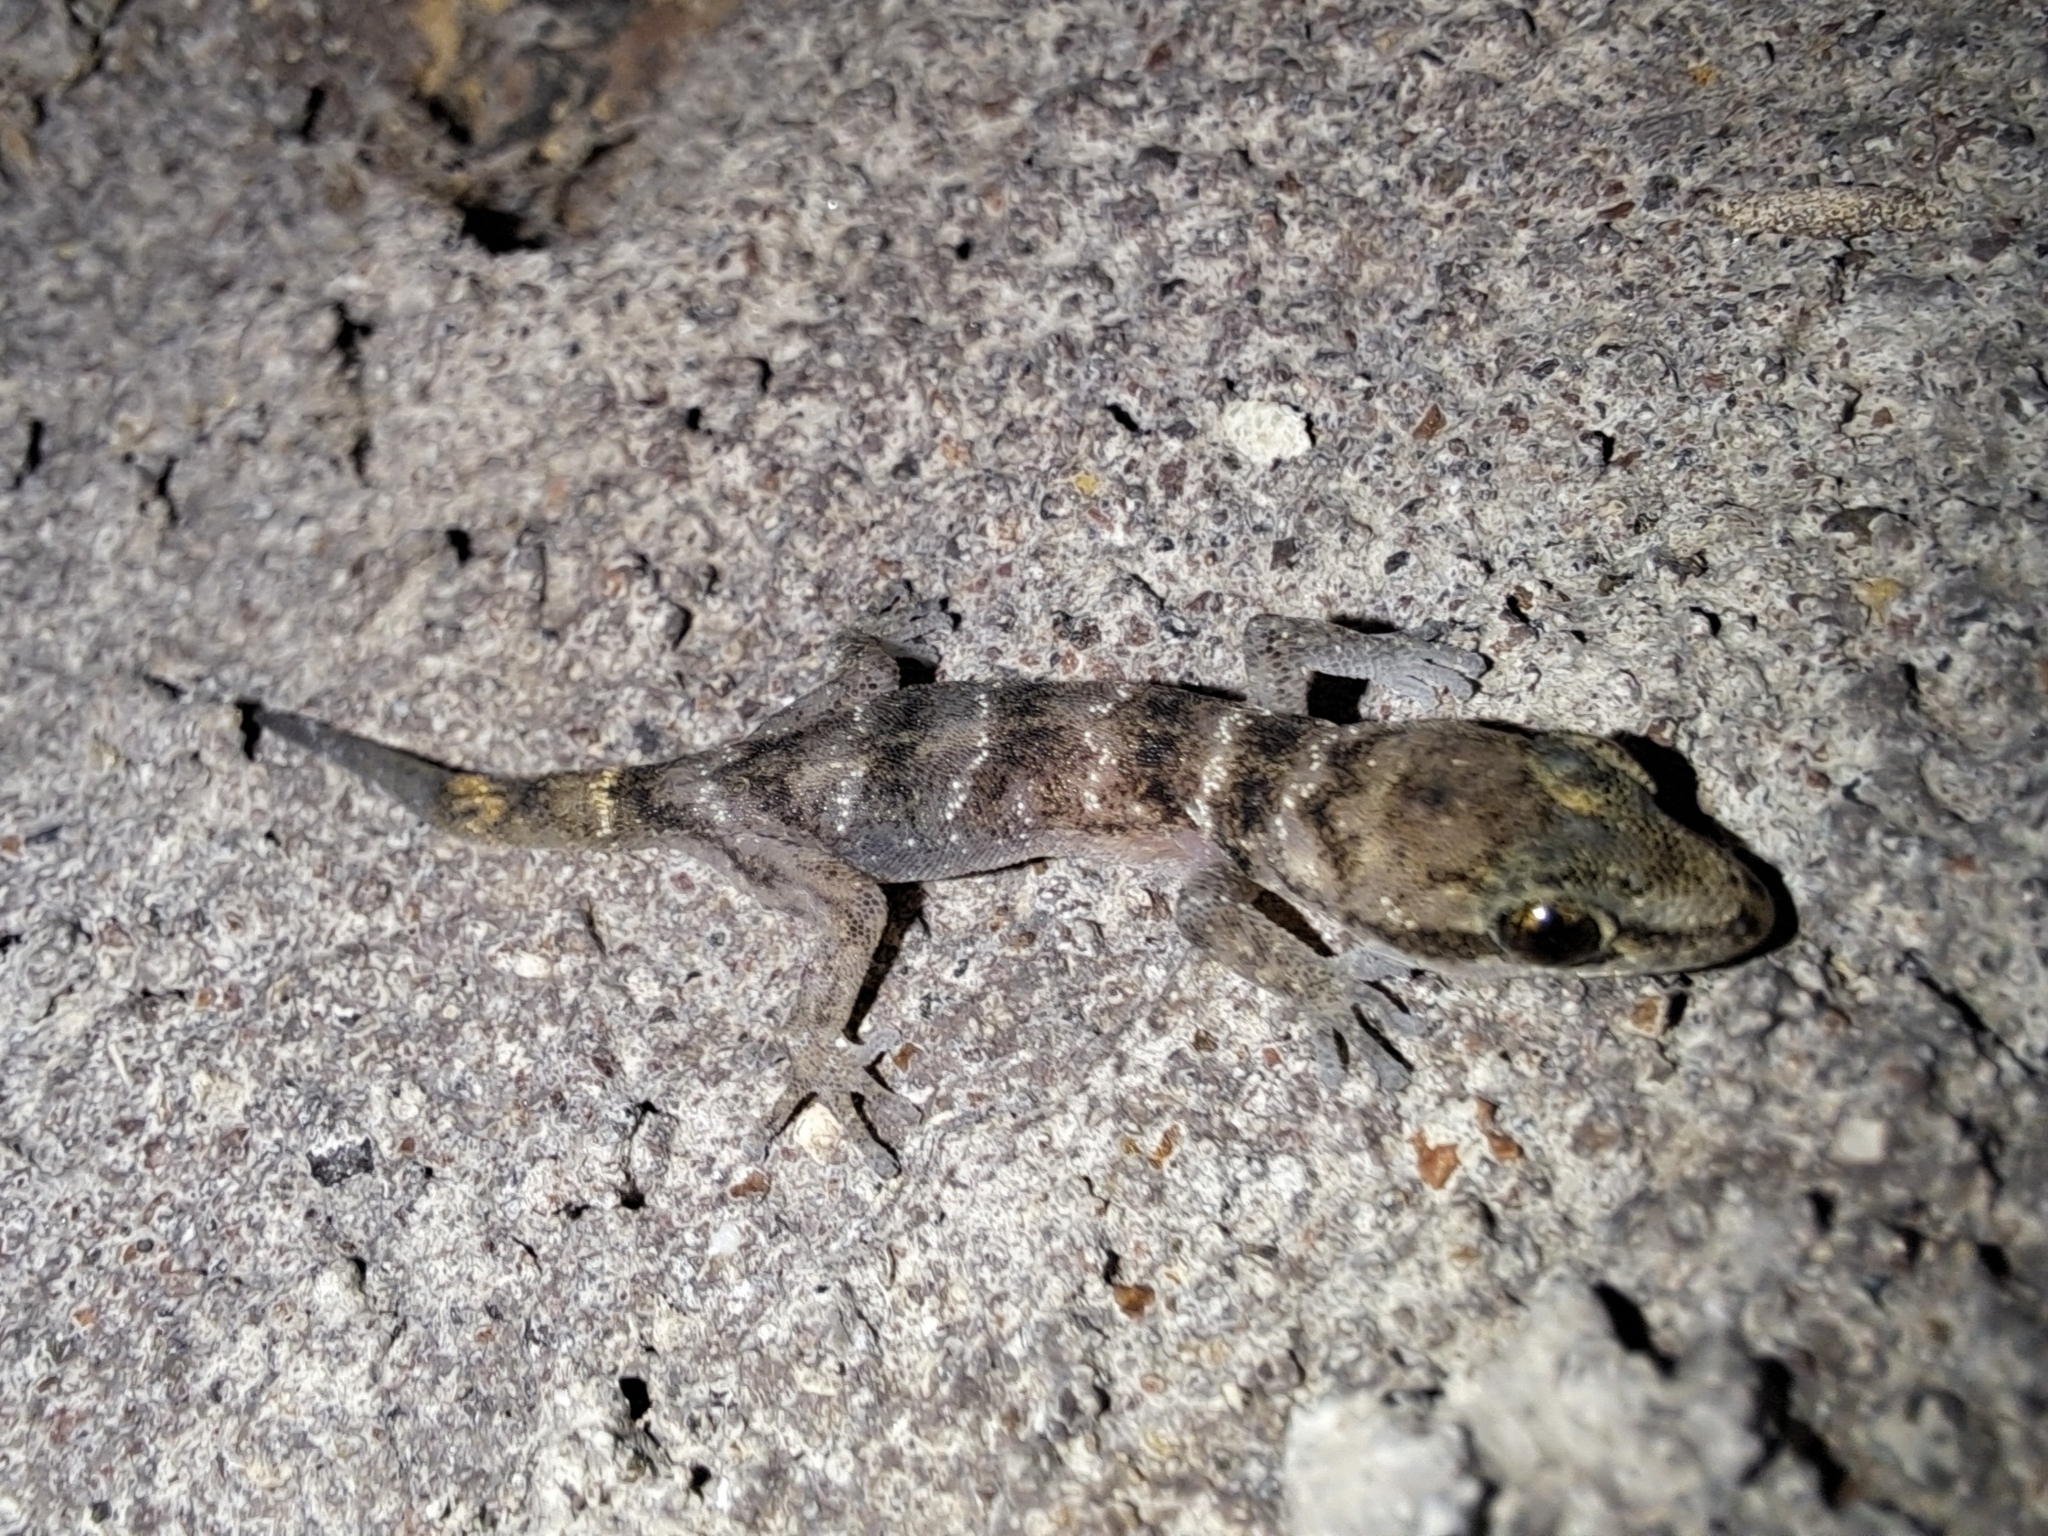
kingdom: Animalia
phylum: Chordata
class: Squamata
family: Phyllodactylidae
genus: Phyllodactylus
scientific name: Phyllodactylus leei
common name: Chatham leaf-toed gecko
